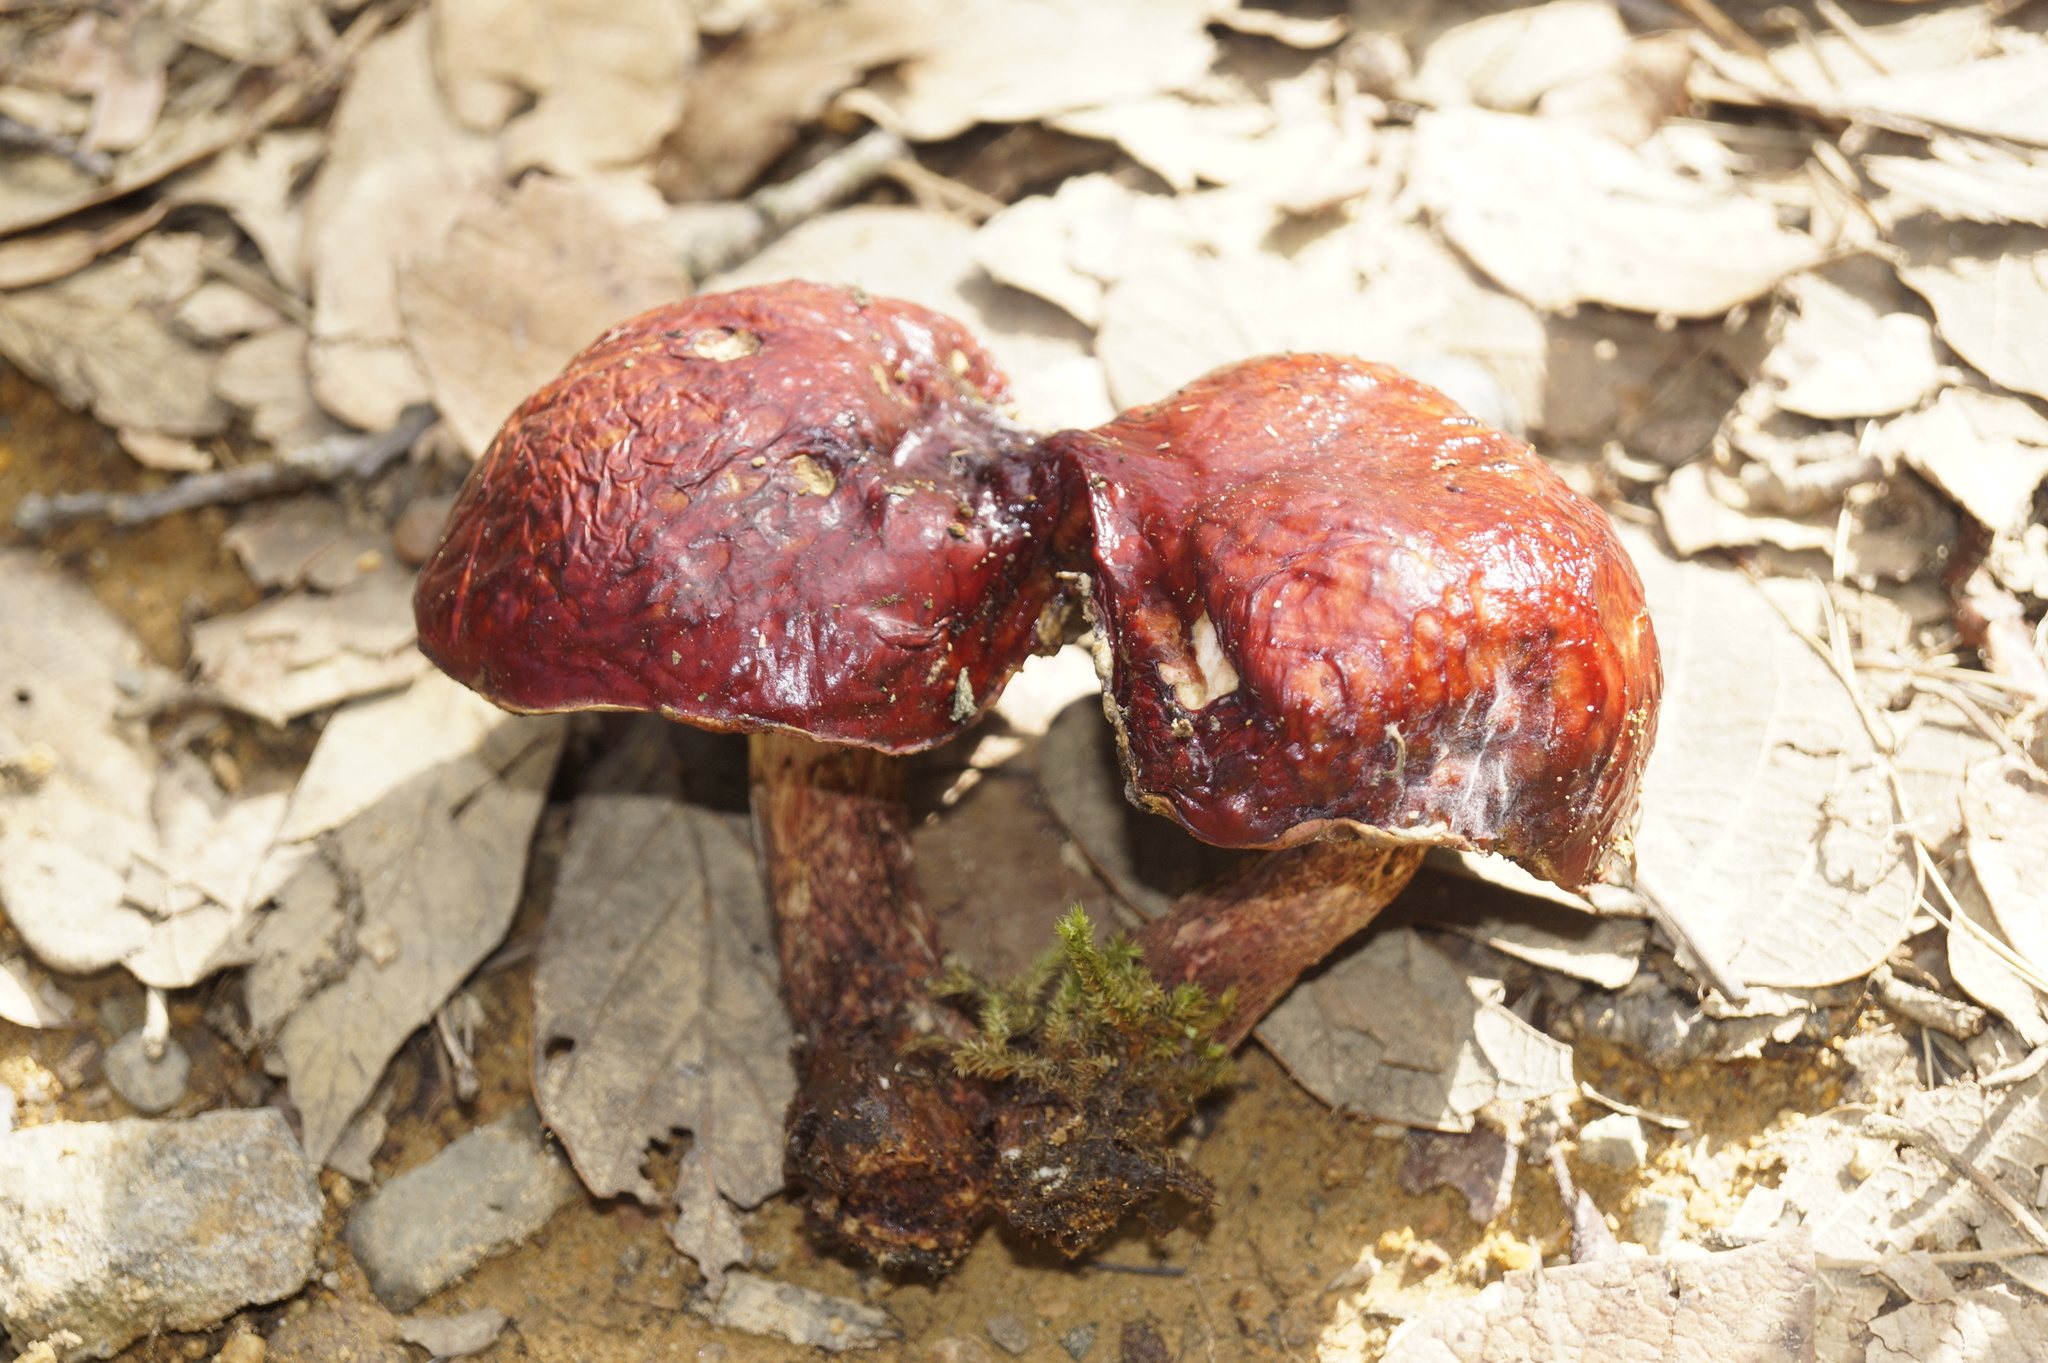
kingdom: Fungi
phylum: Basidiomycota
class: Agaricomycetes
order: Boletales
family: Boletaceae
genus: Butyriboletus
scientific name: Butyriboletus frostii
